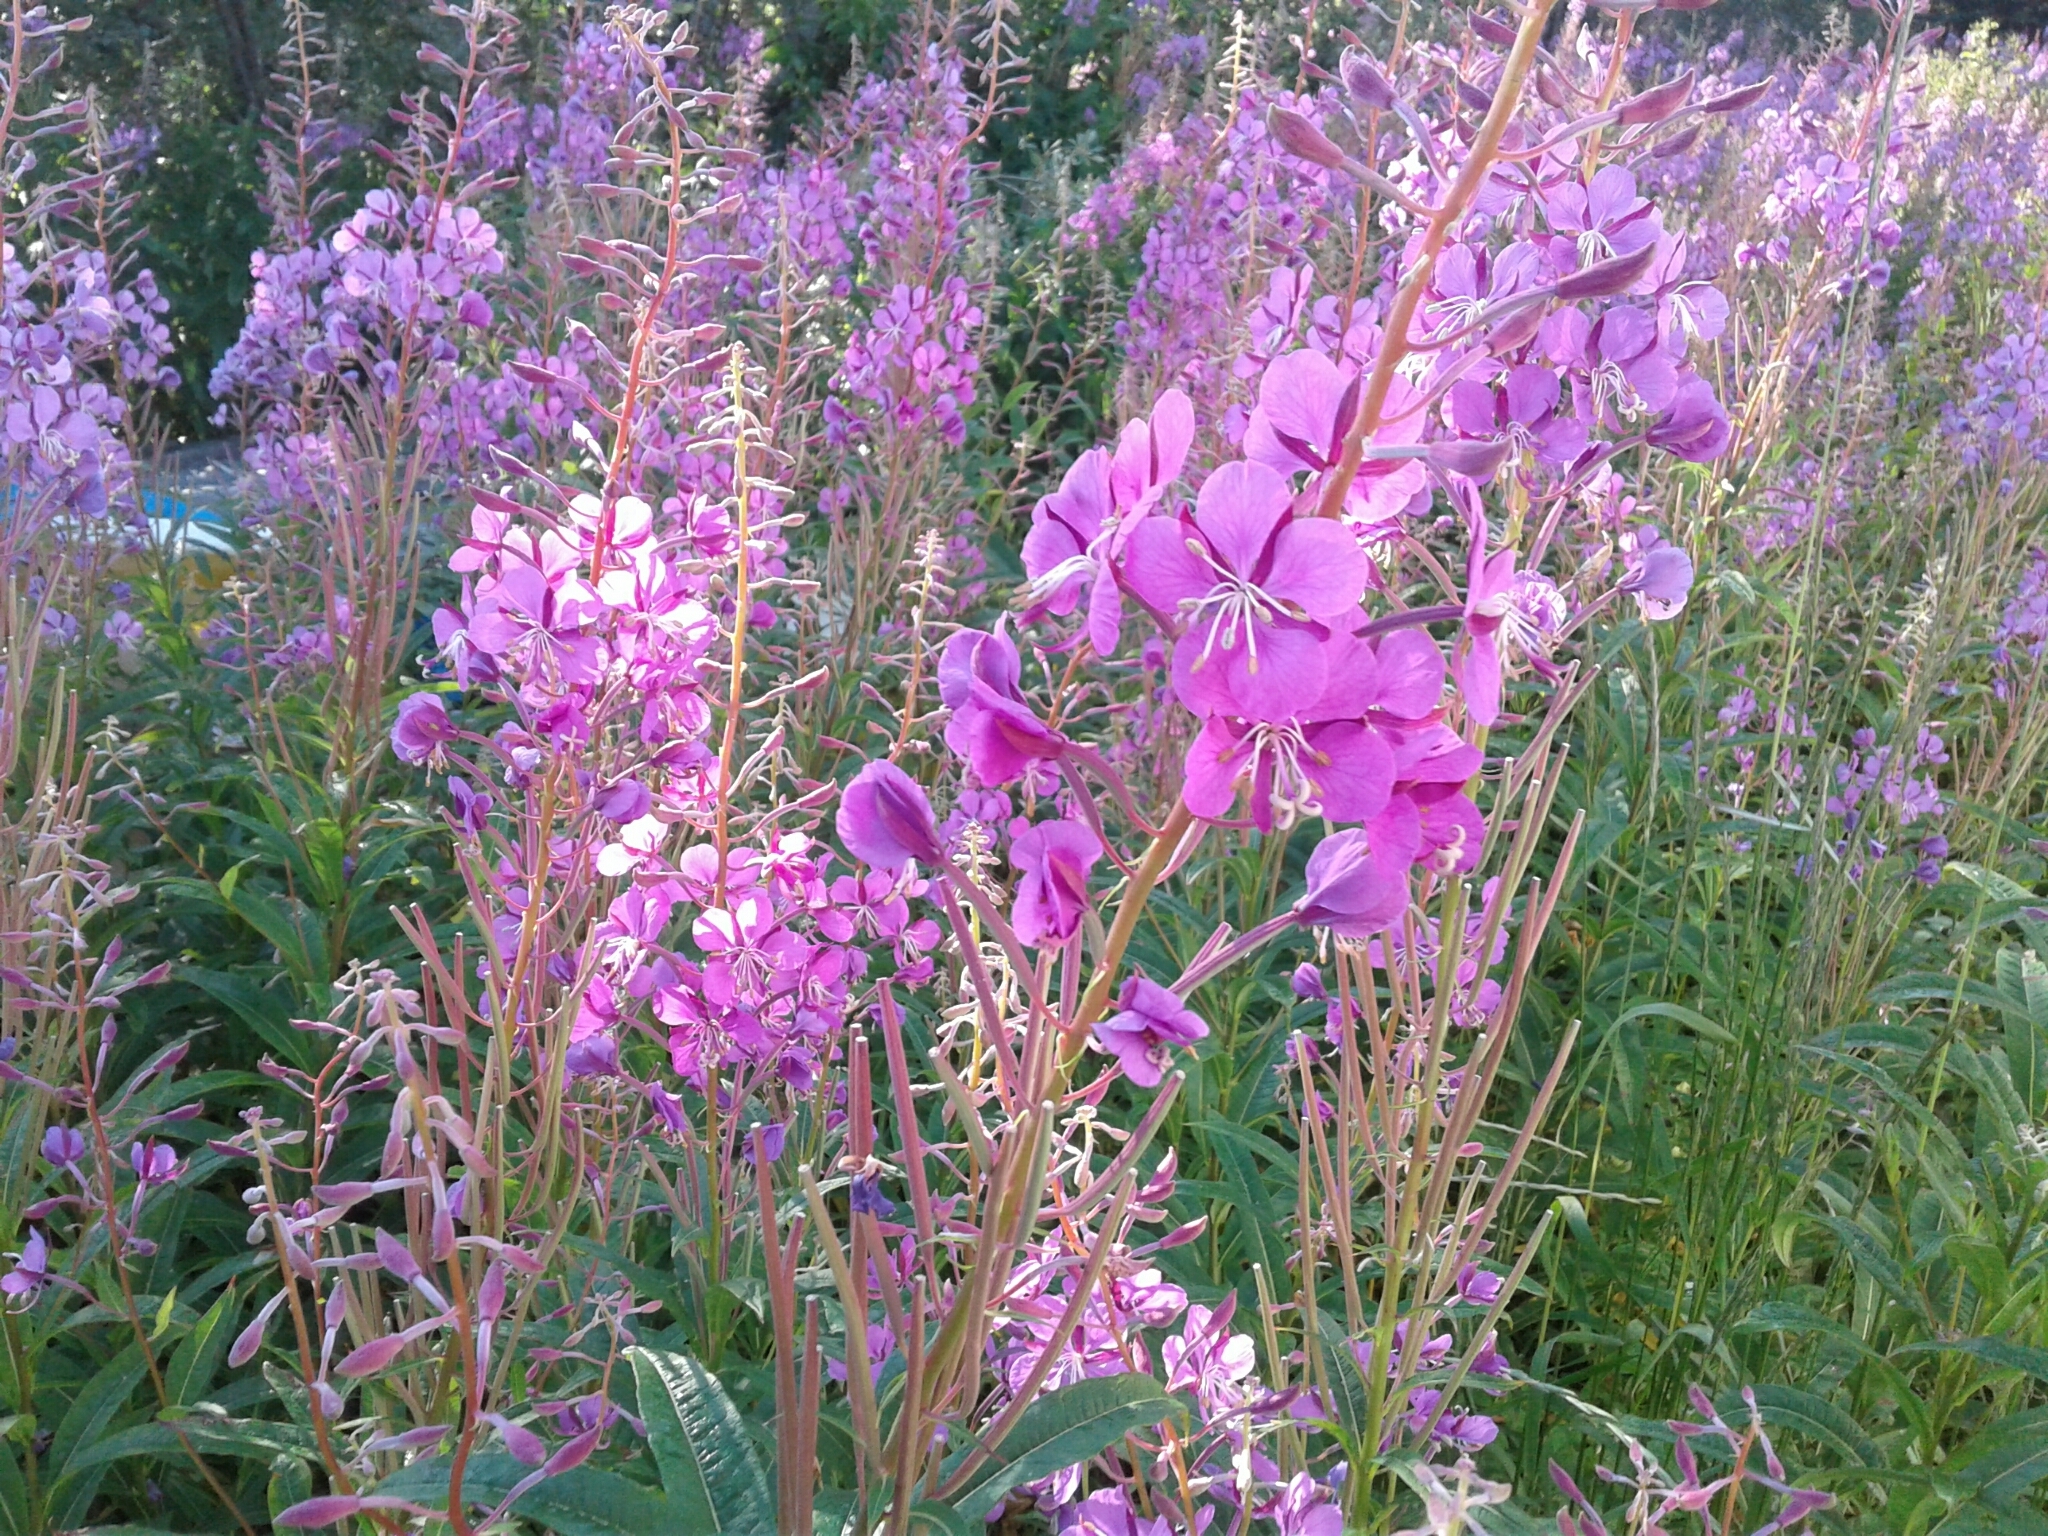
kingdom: Plantae
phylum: Tracheophyta
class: Magnoliopsida
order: Myrtales
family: Onagraceae
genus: Chamaenerion
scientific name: Chamaenerion angustifolium
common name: Fireweed
